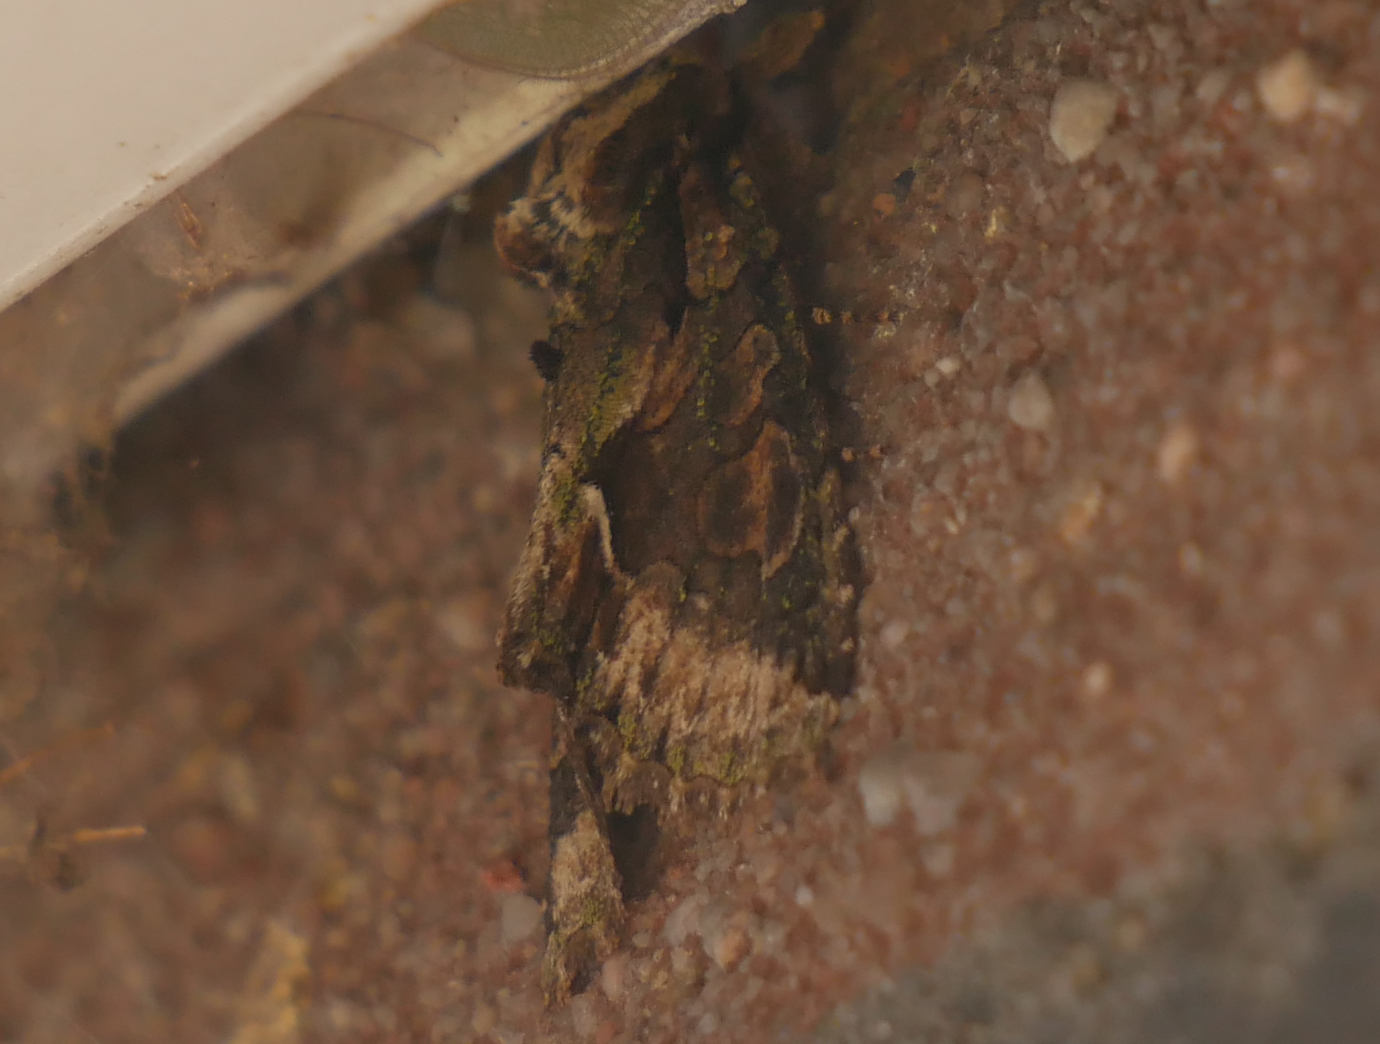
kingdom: Animalia
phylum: Arthropoda
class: Insecta
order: Lepidoptera
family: Noctuidae
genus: Allophyes
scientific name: Allophyes oxyacanthae
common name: Green-brindled crescent
